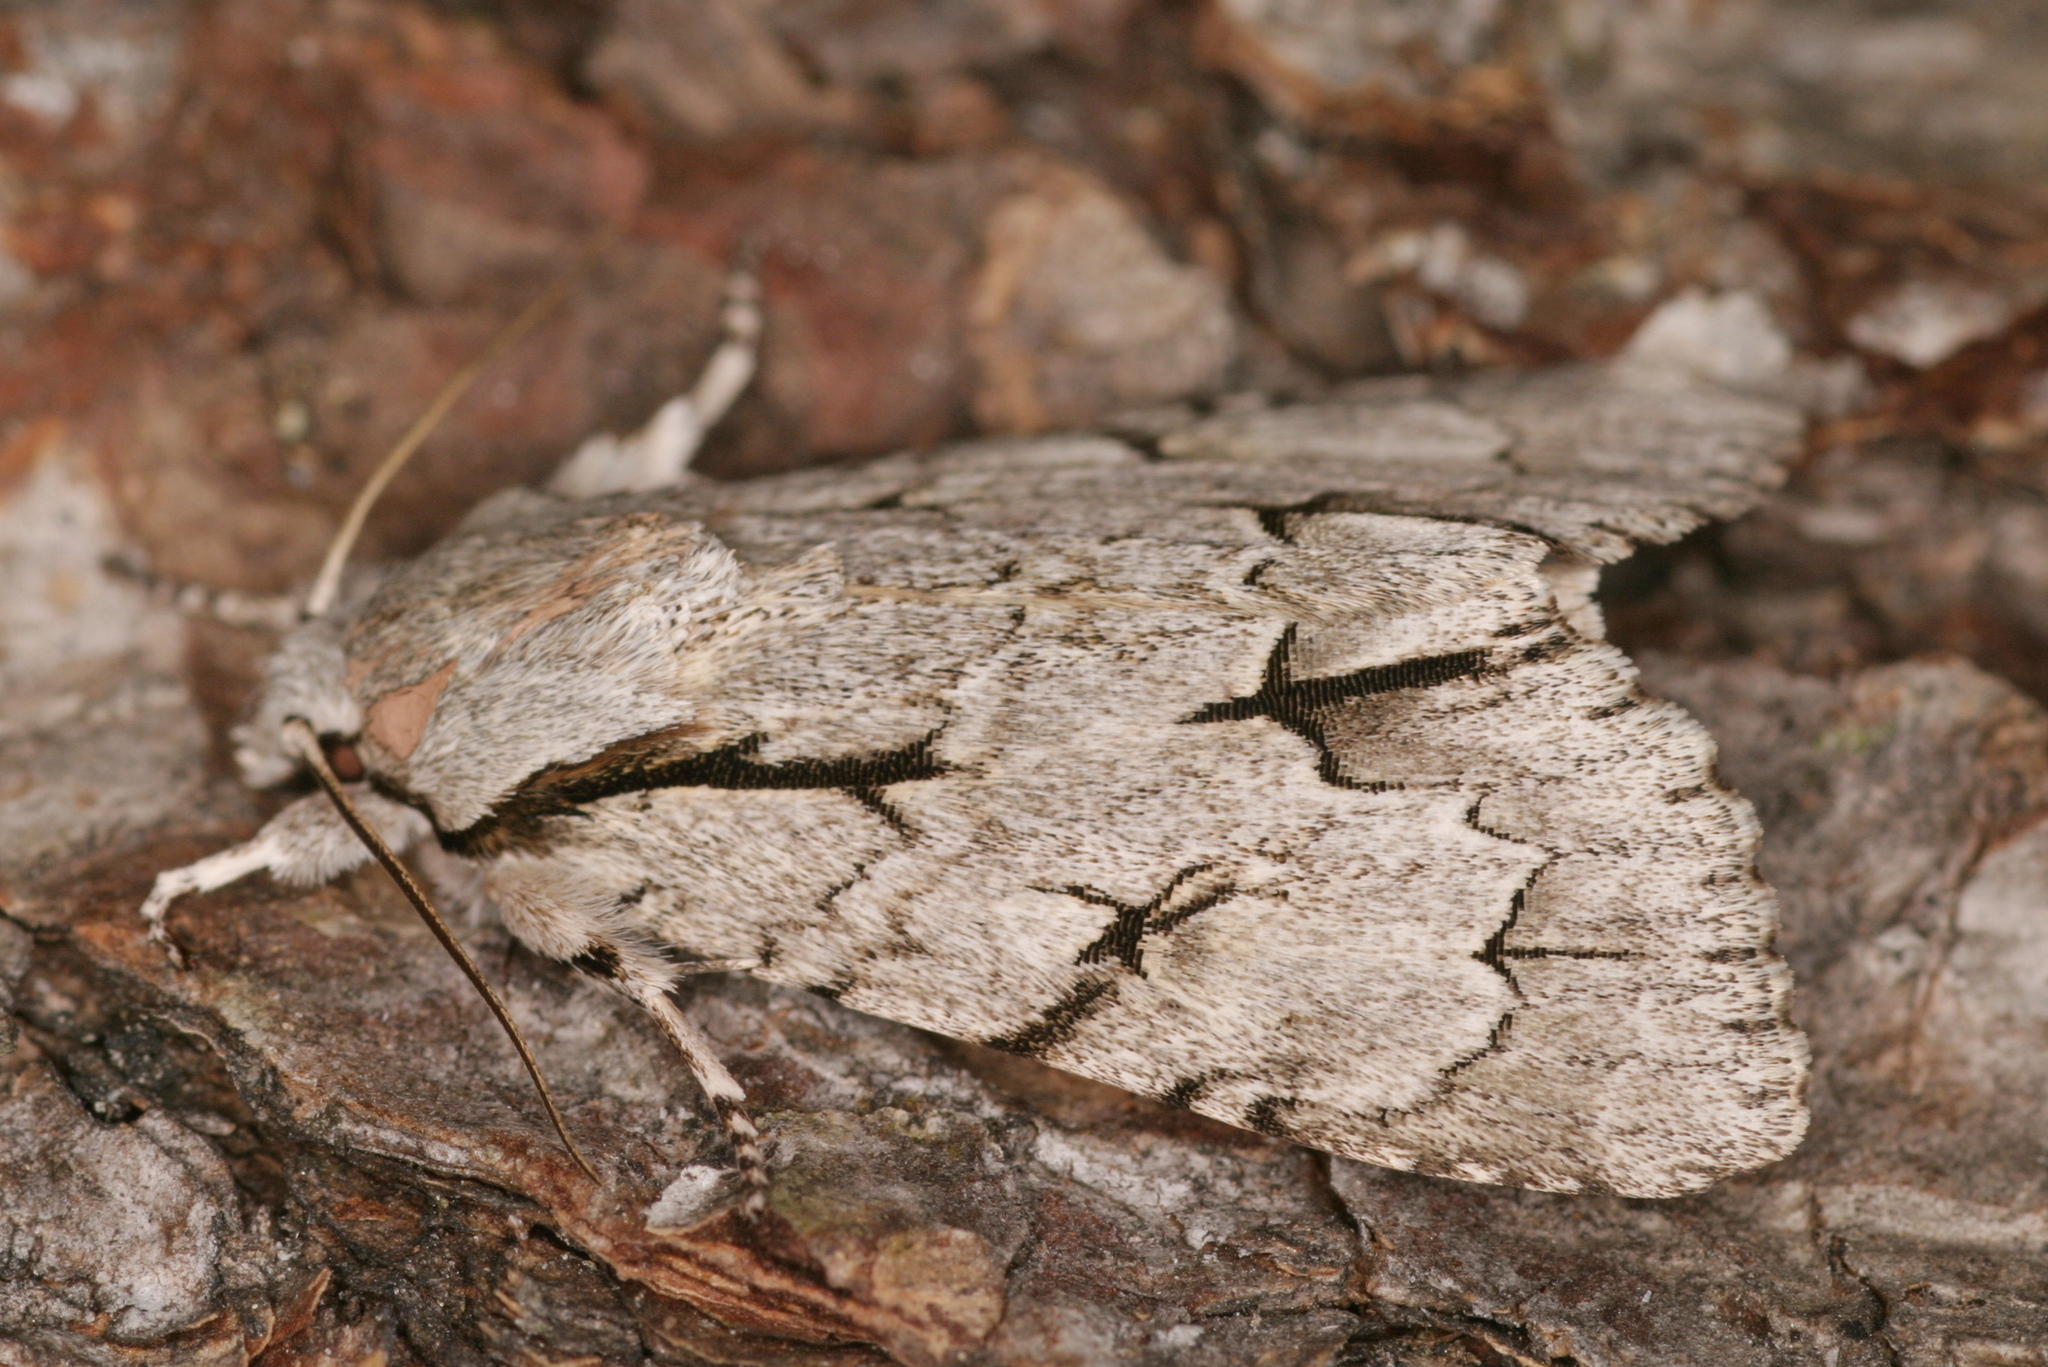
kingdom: Animalia
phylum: Arthropoda
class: Insecta
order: Lepidoptera
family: Noctuidae
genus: Acronicta
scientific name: Acronicta psi
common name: Grey dagger
